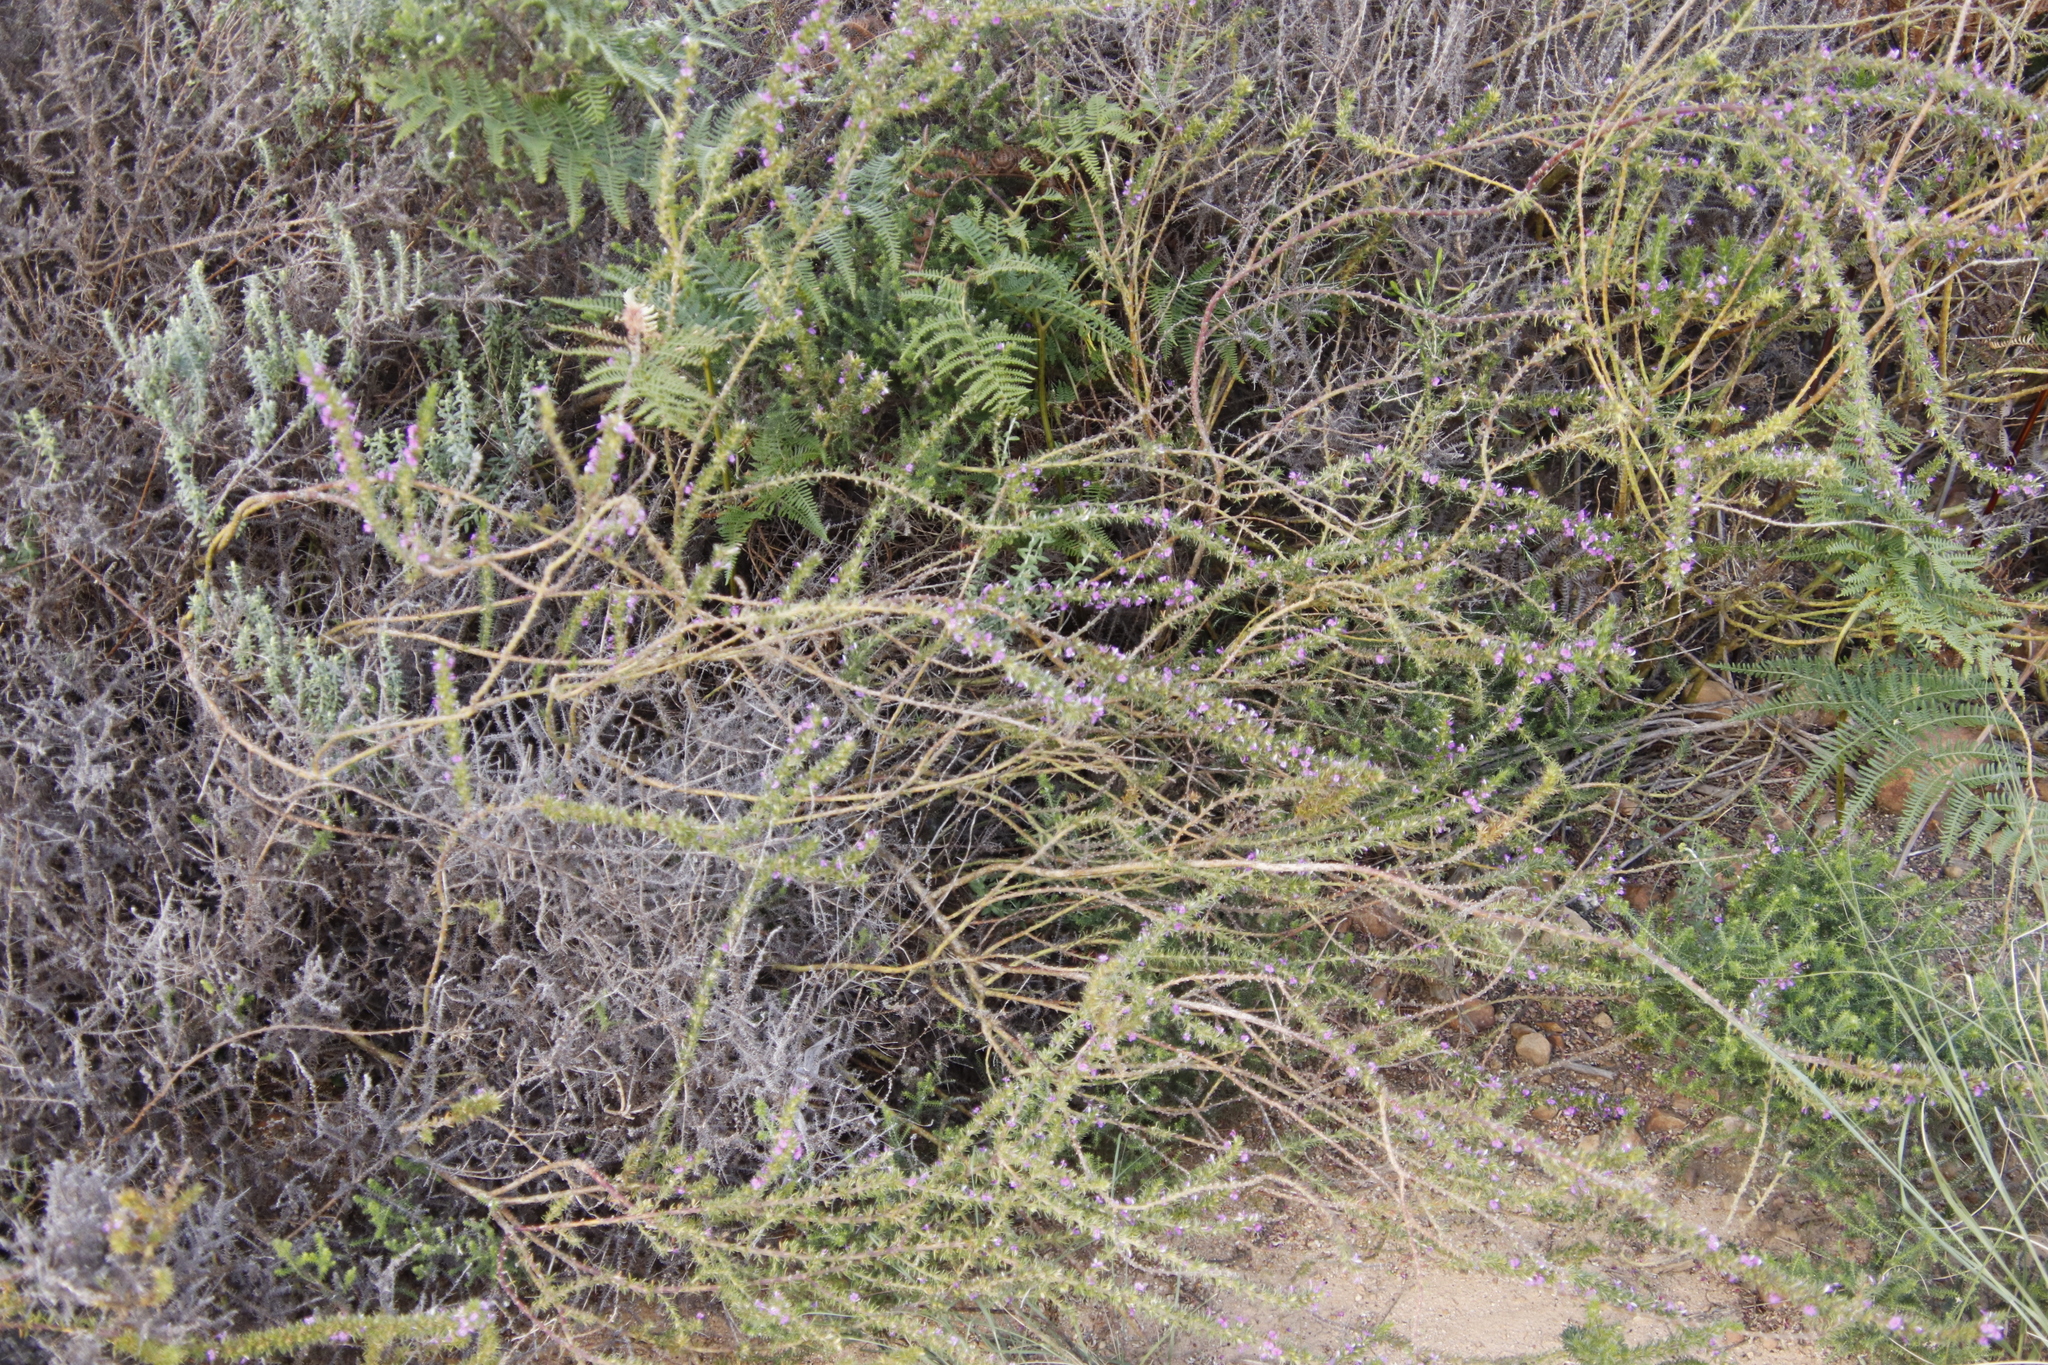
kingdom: Plantae
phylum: Tracheophyta
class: Magnoliopsida
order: Fabales
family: Polygalaceae
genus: Muraltia
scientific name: Muraltia heisteria
